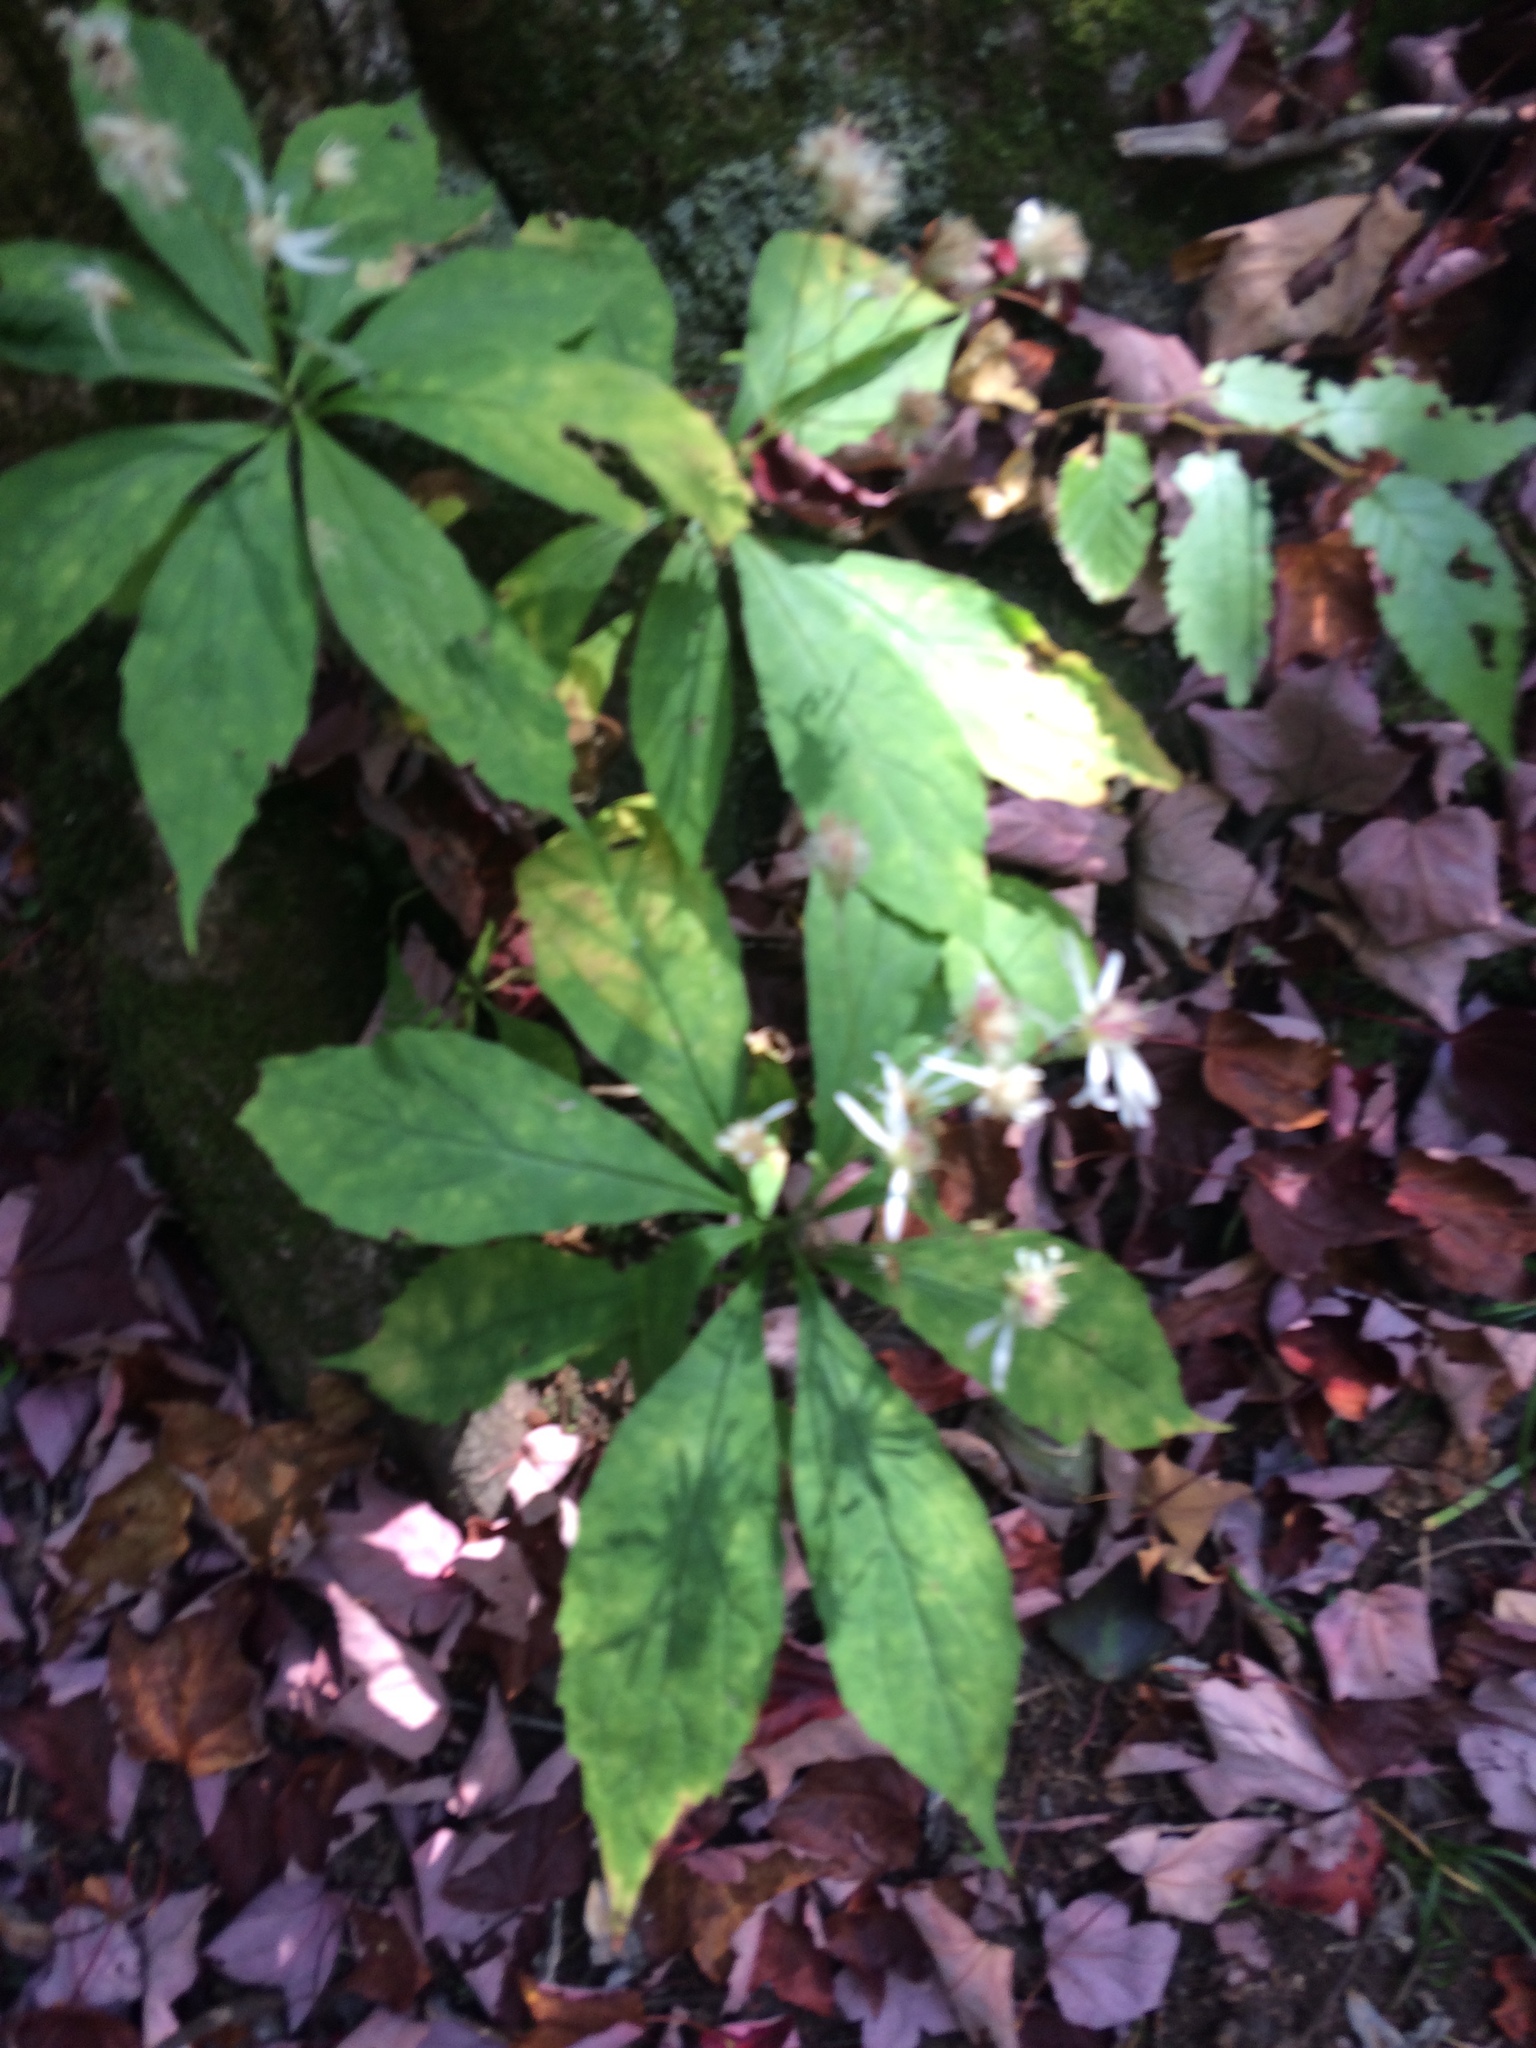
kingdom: Plantae
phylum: Tracheophyta
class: Magnoliopsida
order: Asterales
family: Asteraceae
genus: Oclemena
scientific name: Oclemena acuminata
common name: Mountain aster
